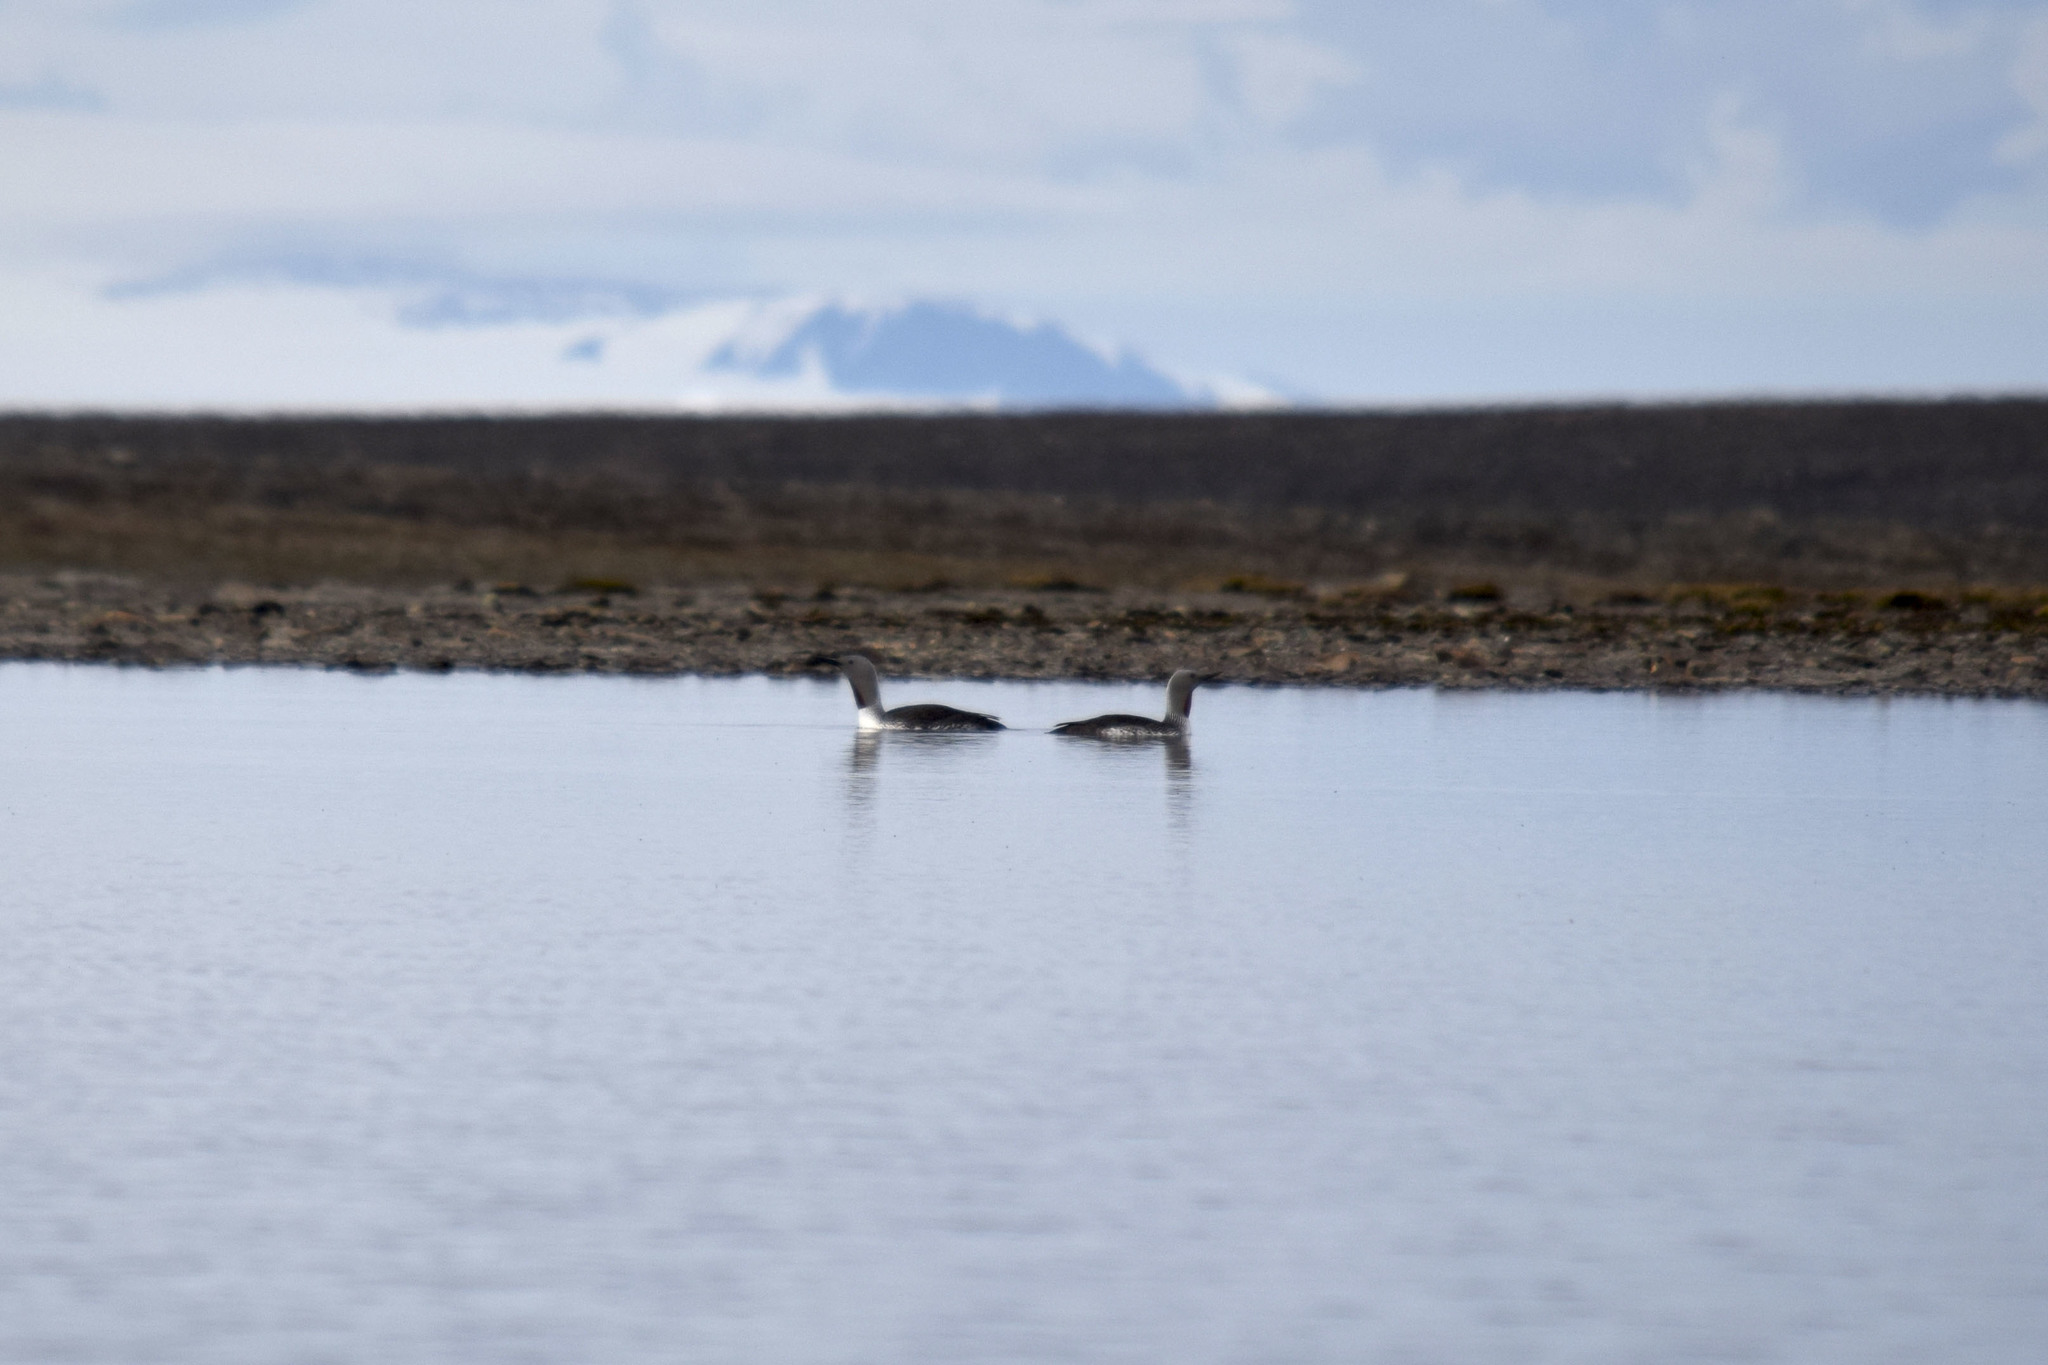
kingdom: Animalia
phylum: Chordata
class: Aves
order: Gaviiformes
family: Gaviidae
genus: Gavia
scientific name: Gavia stellata
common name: Red-throated loon
